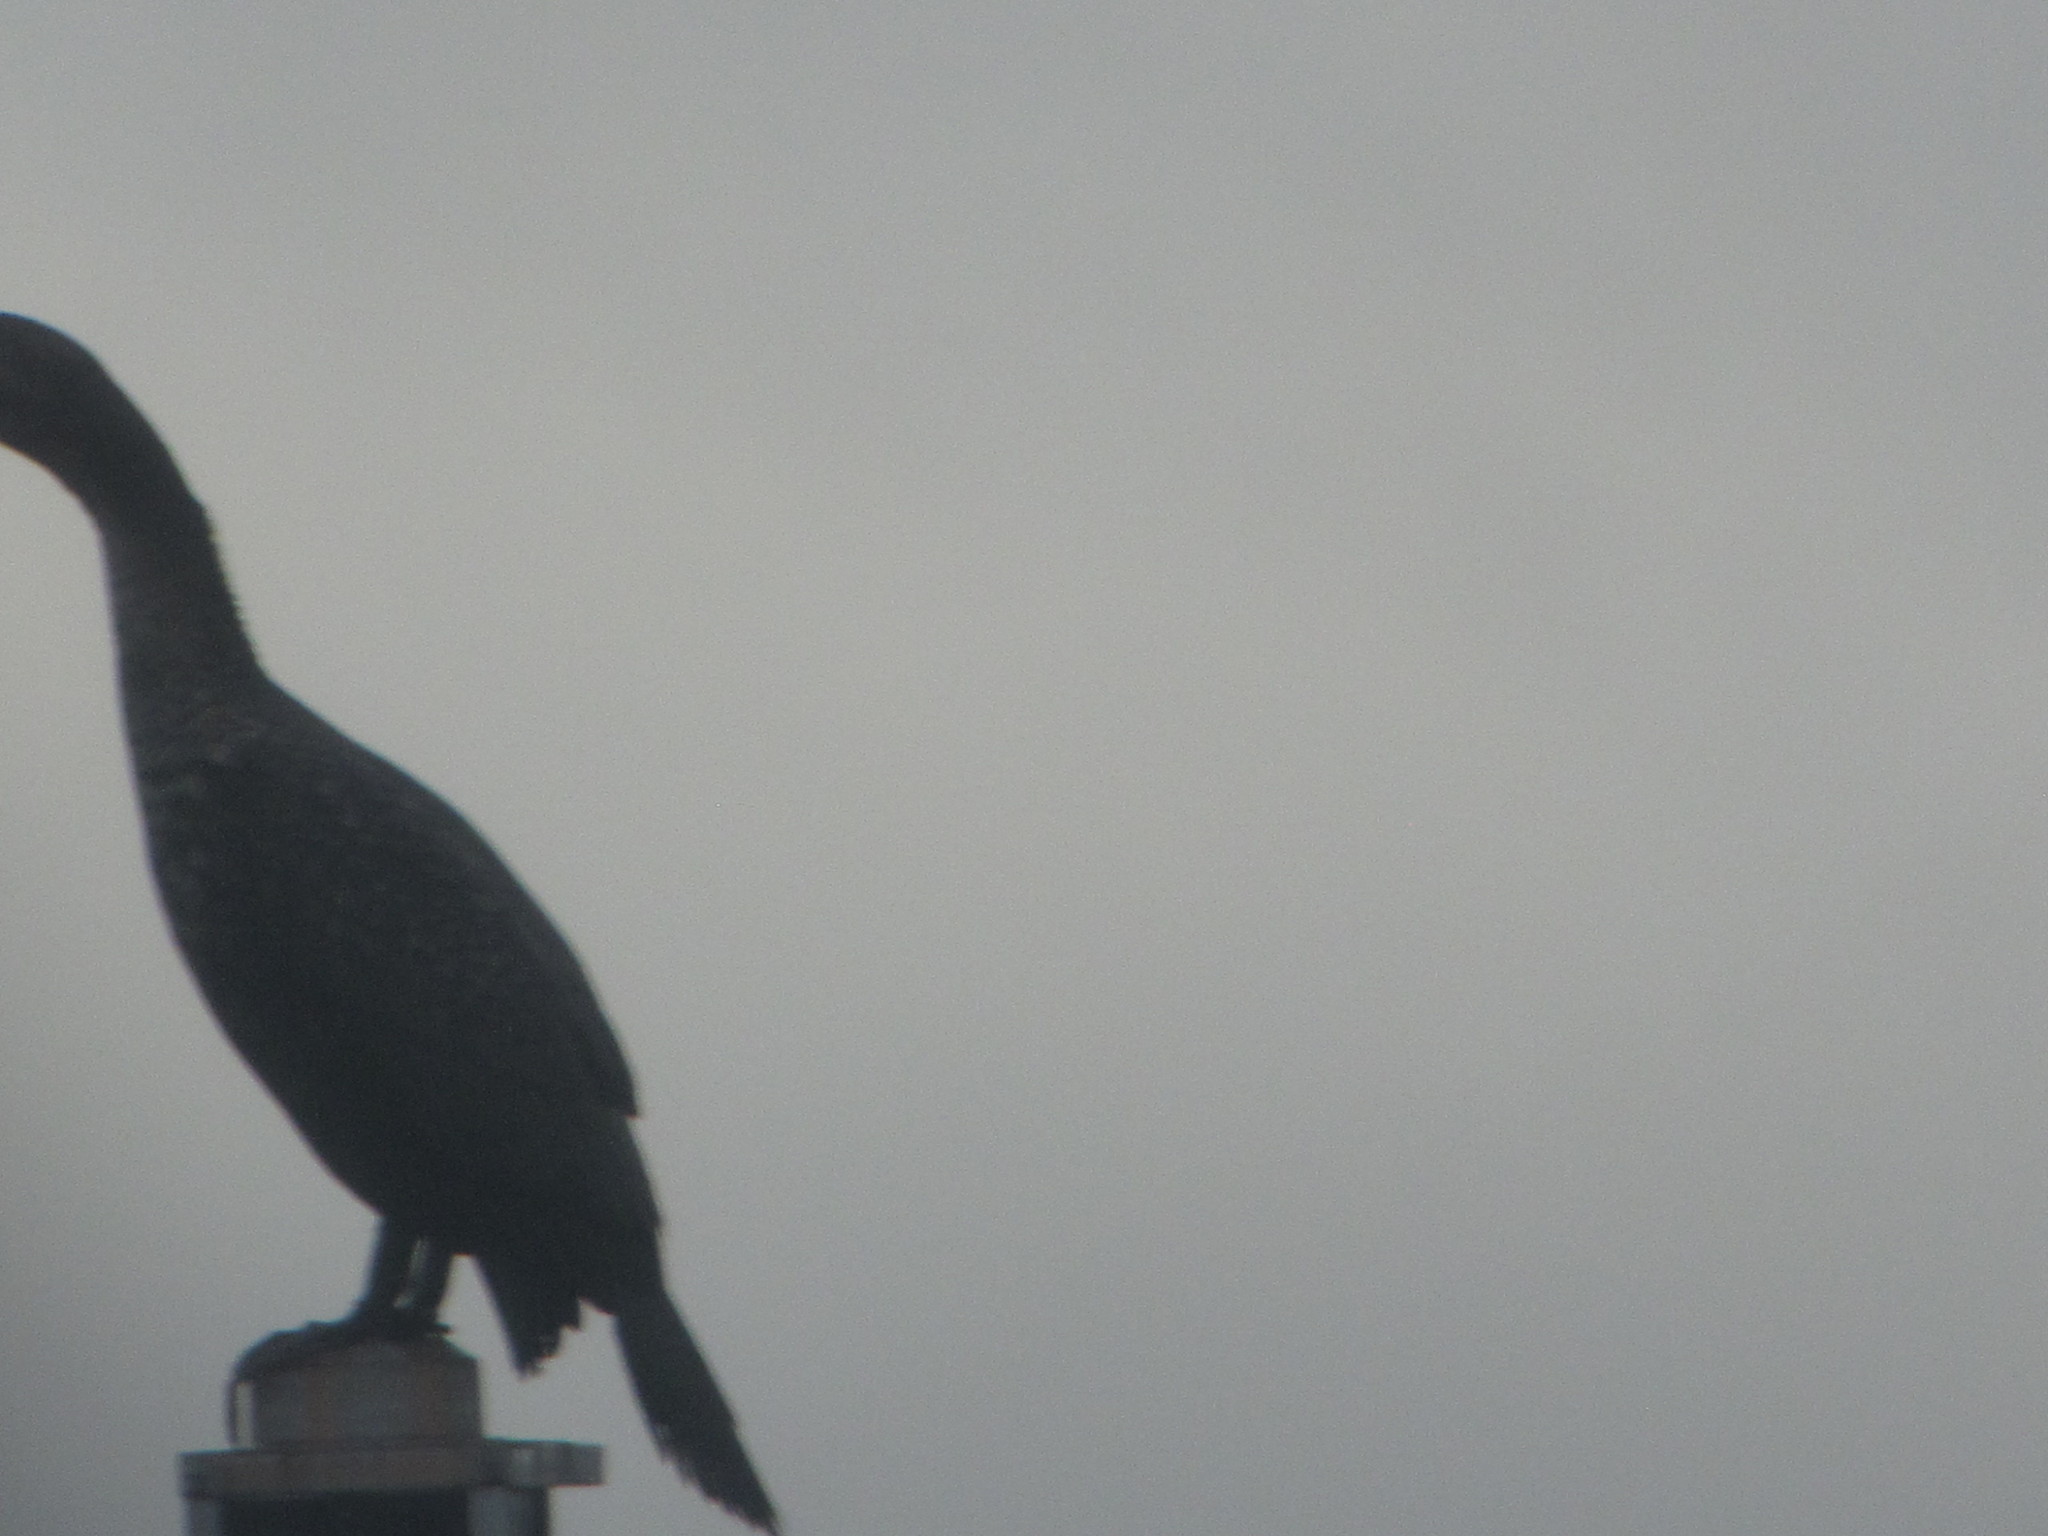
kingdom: Animalia
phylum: Chordata
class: Aves
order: Suliformes
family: Phalacrocoracidae
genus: Phalacrocorax
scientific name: Phalacrocorax auritus
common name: Double-crested cormorant
